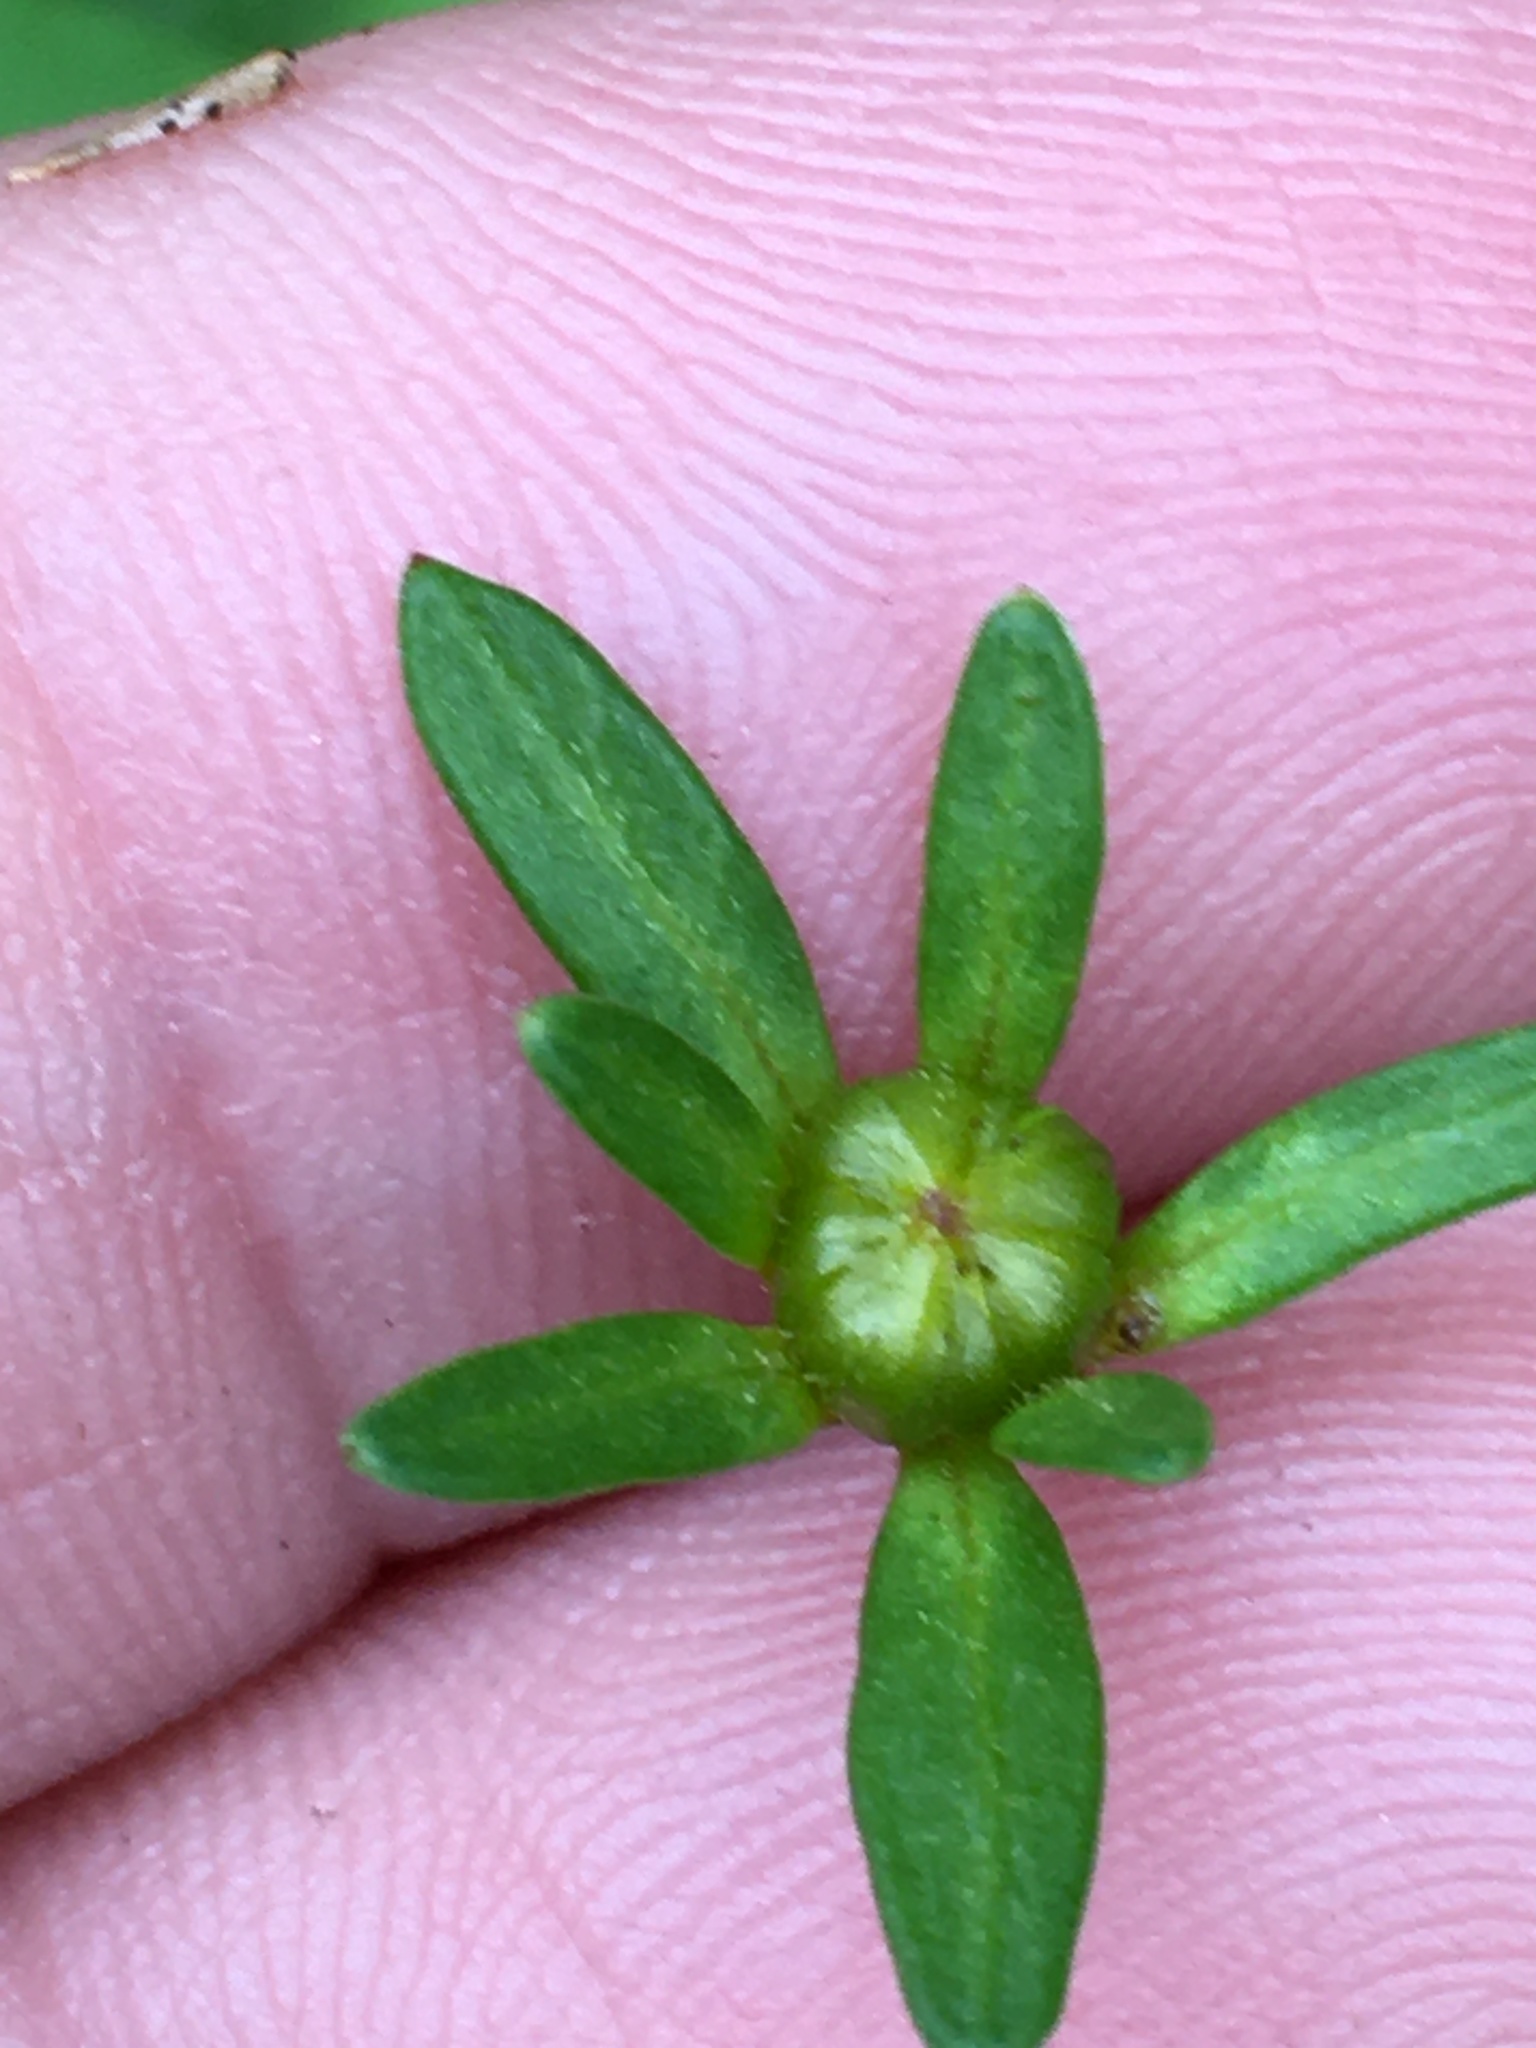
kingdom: Plantae
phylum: Tracheophyta
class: Magnoliopsida
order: Asterales
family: Asteraceae
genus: Coreopsis
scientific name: Coreopsis major
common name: Forest tickseed
